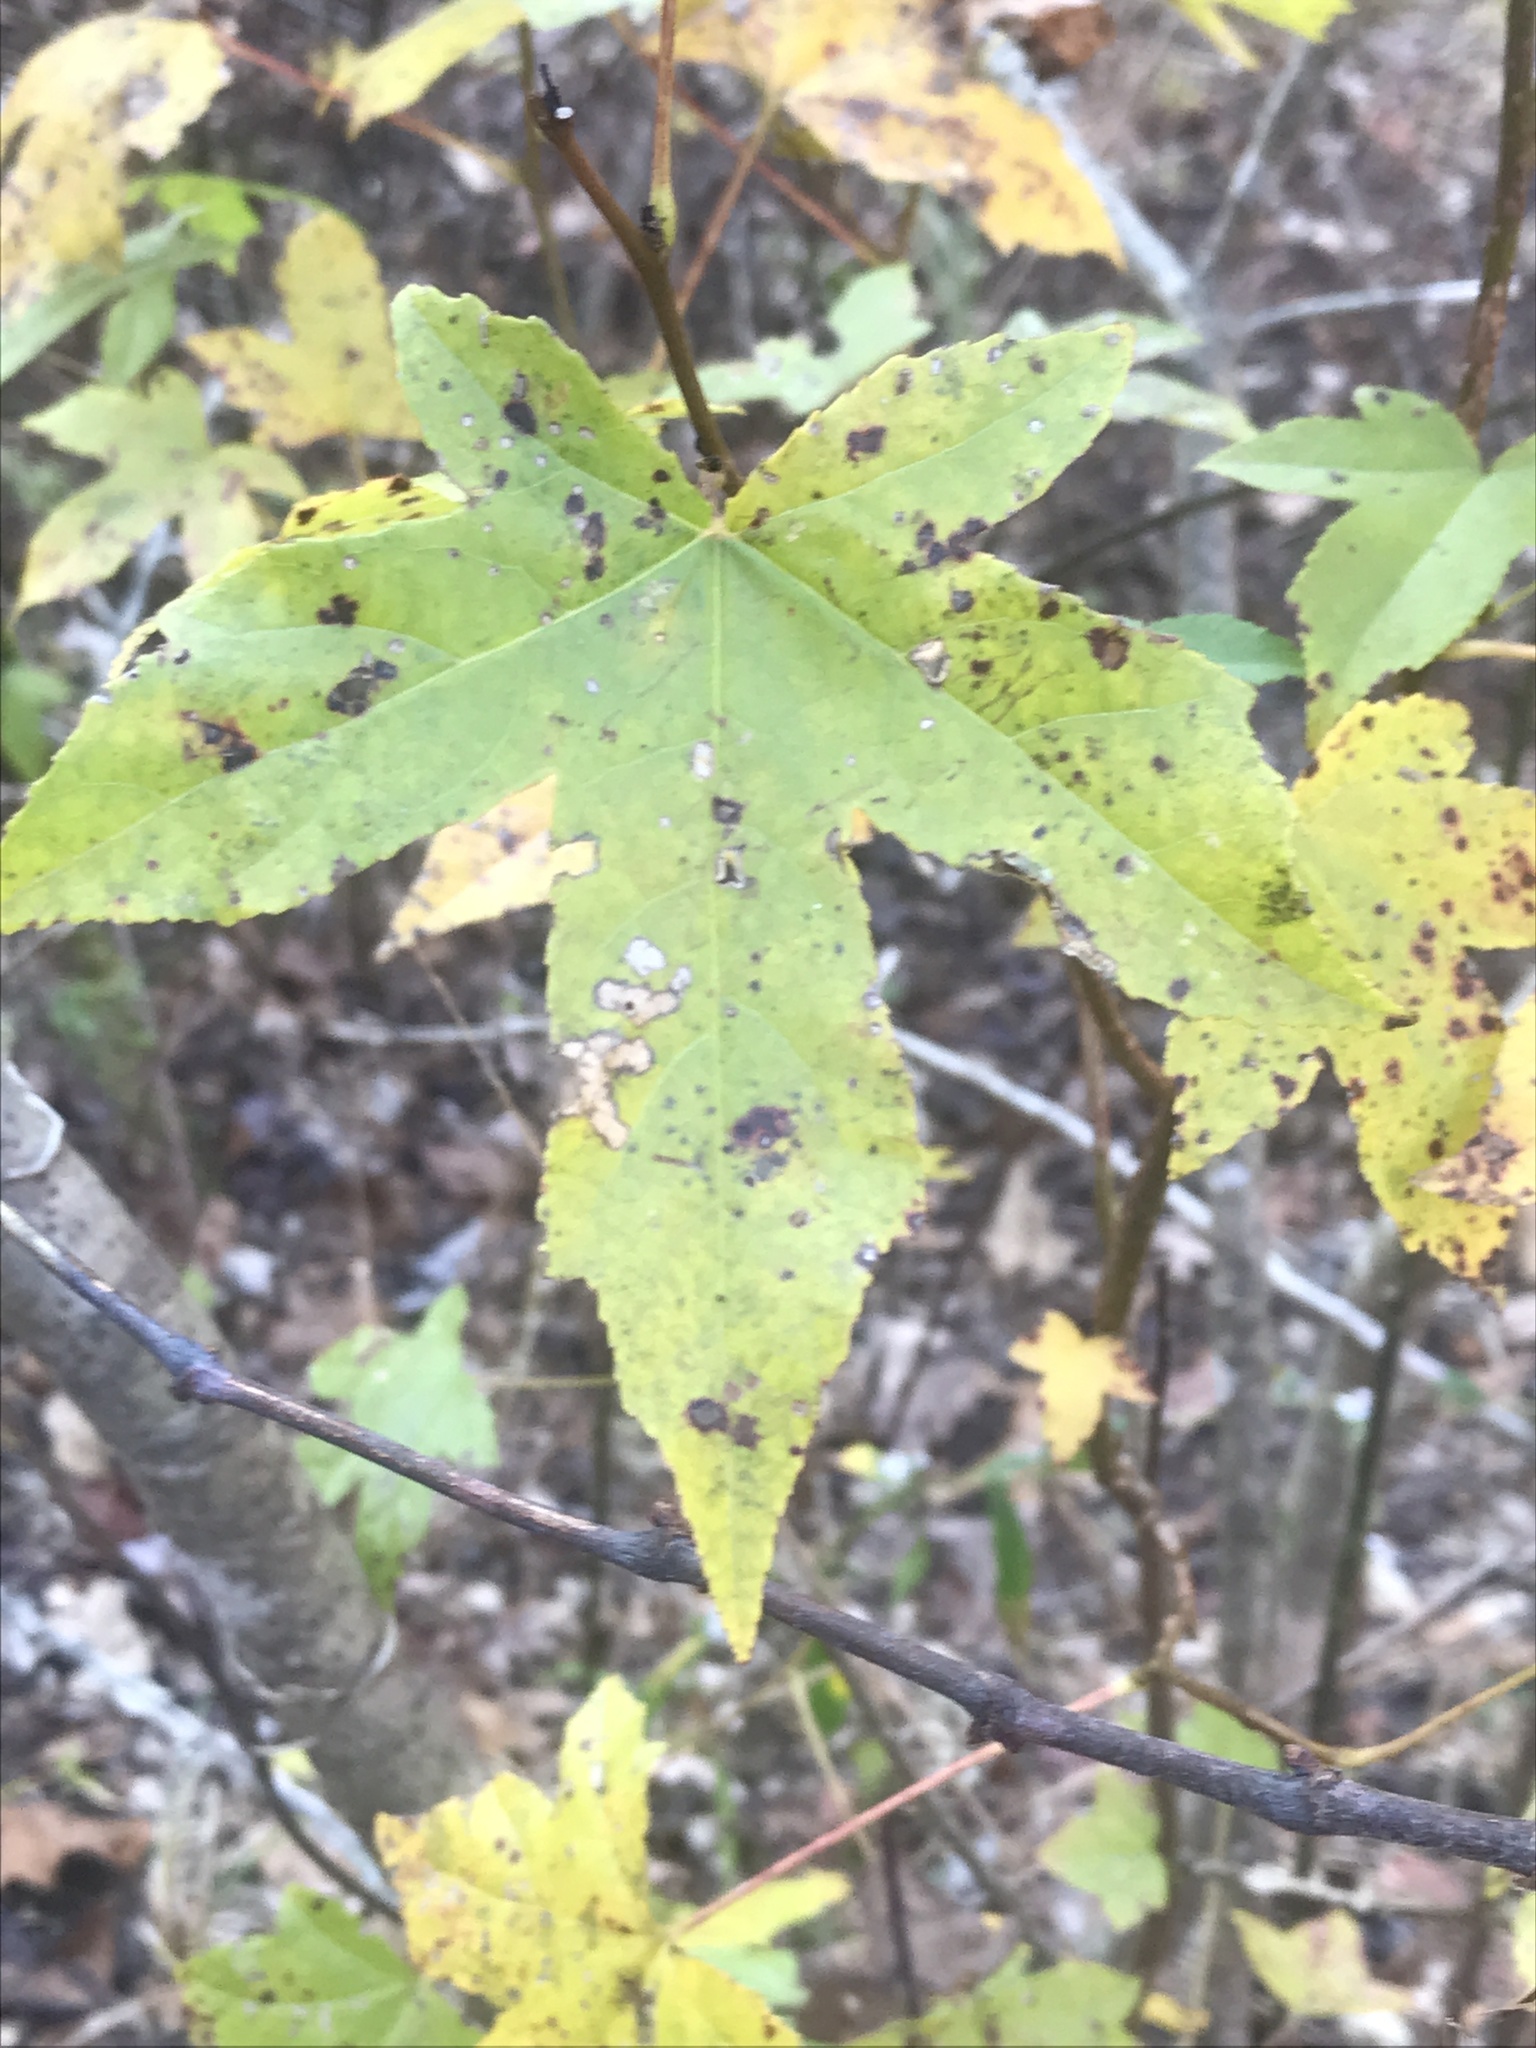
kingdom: Plantae
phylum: Tracheophyta
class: Magnoliopsida
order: Saxifragales
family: Altingiaceae
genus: Liquidambar
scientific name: Liquidambar styraciflua
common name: Sweet gum
